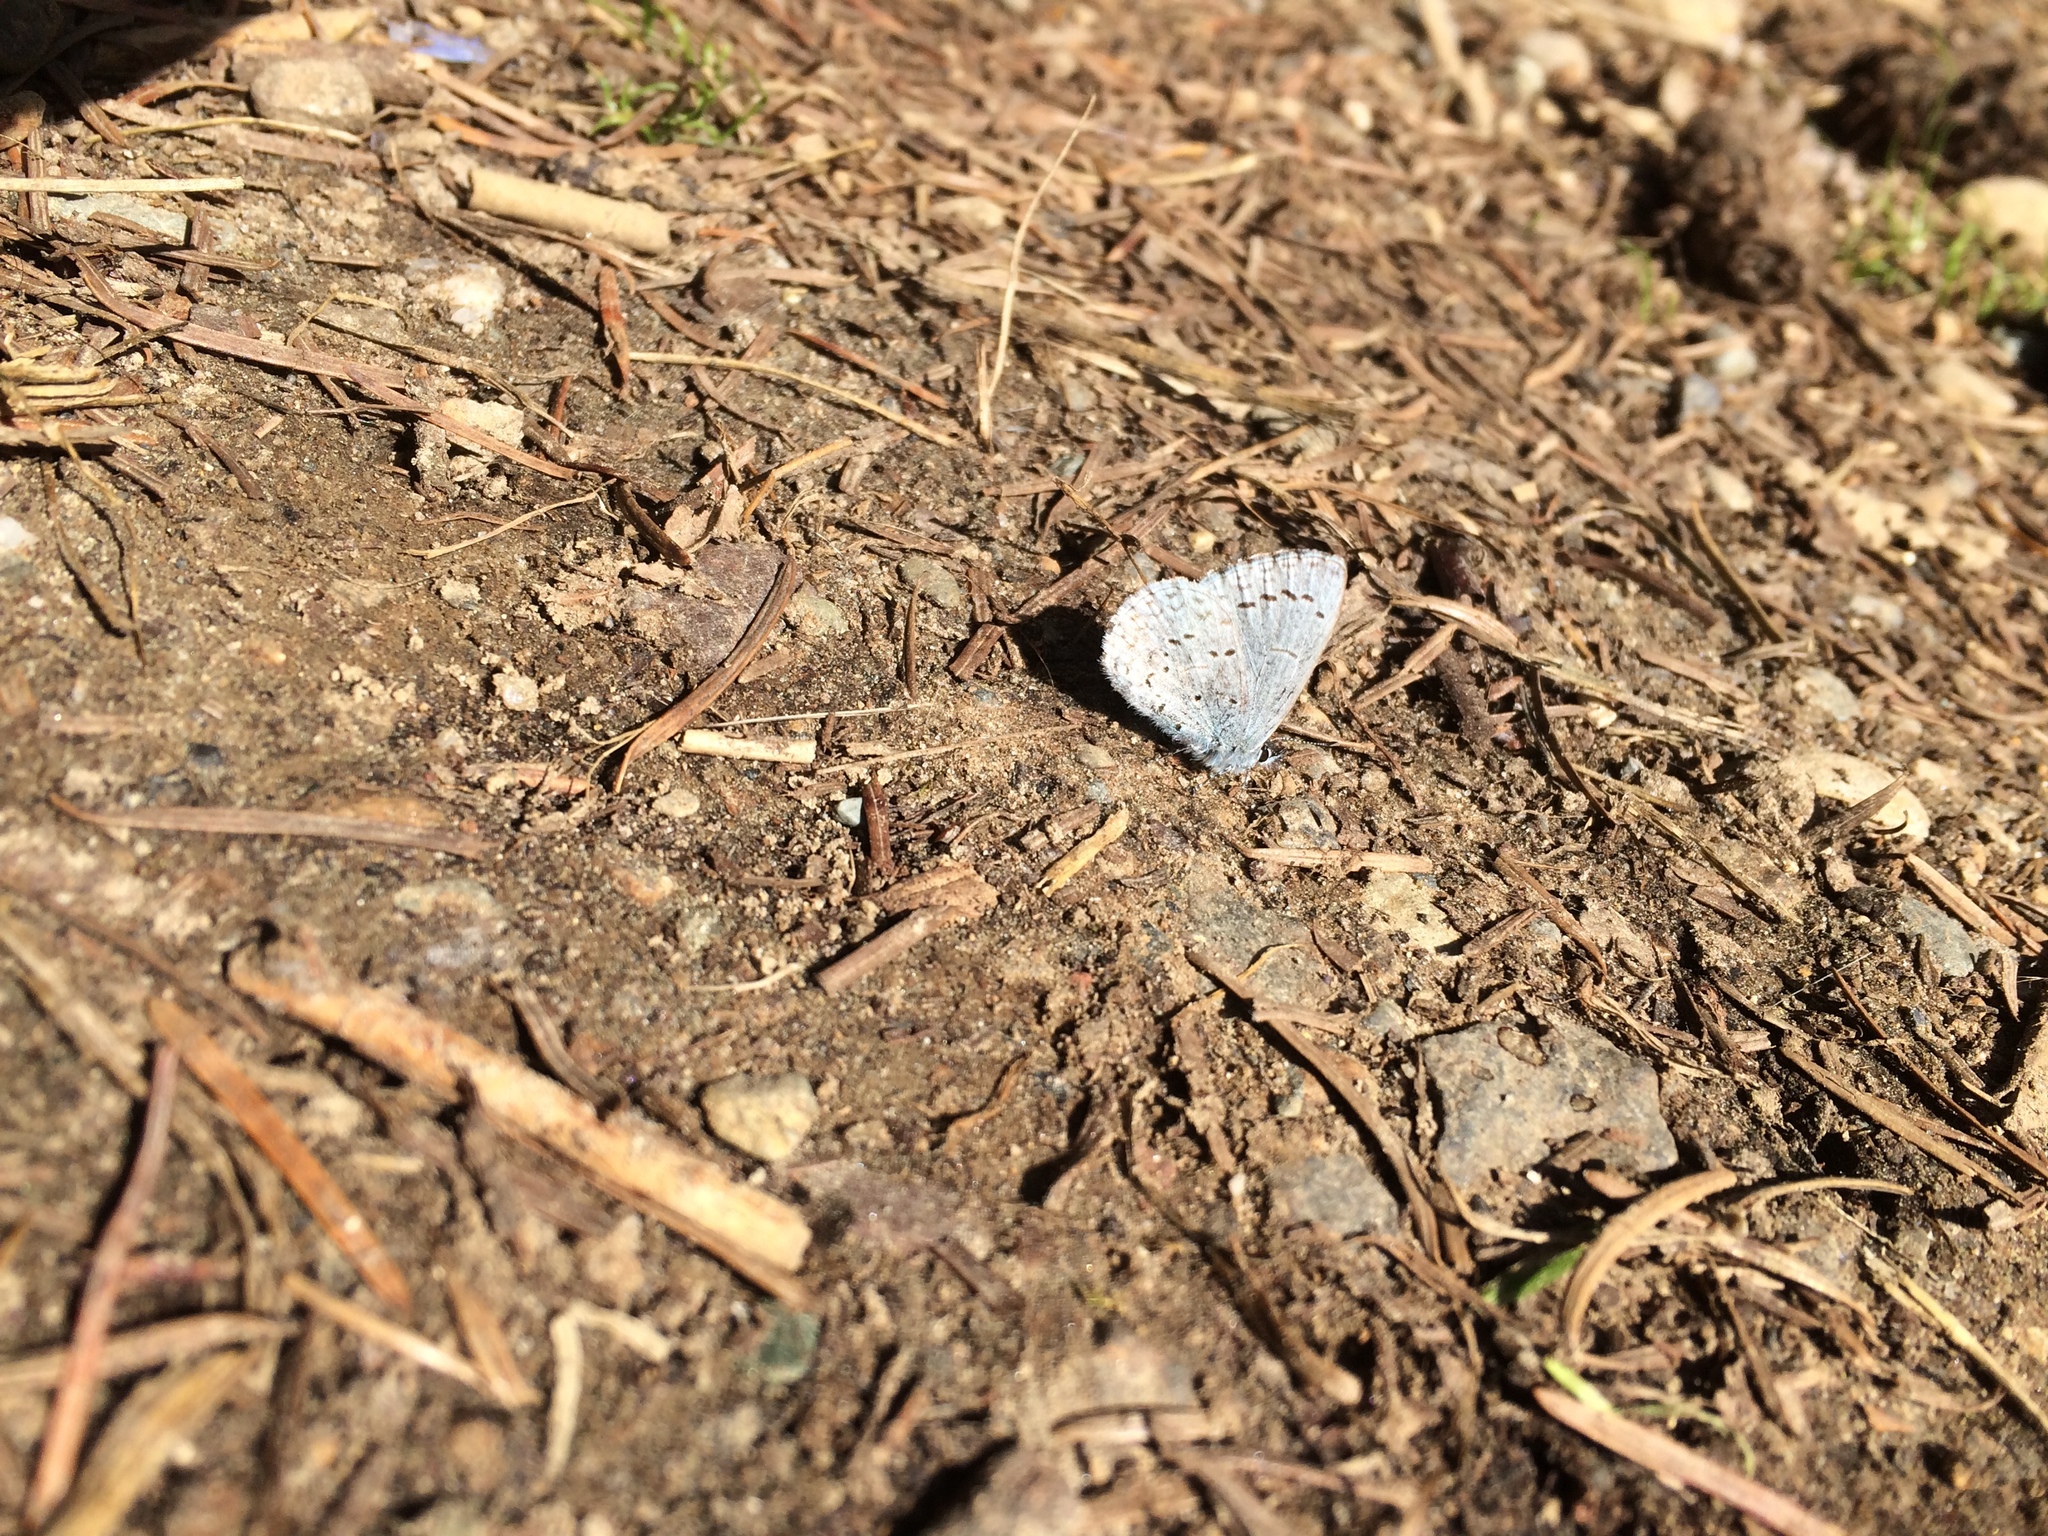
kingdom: Animalia
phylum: Arthropoda
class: Insecta
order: Lepidoptera
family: Lycaenidae
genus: Celastrina
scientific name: Celastrina ladon
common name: Spring azure
